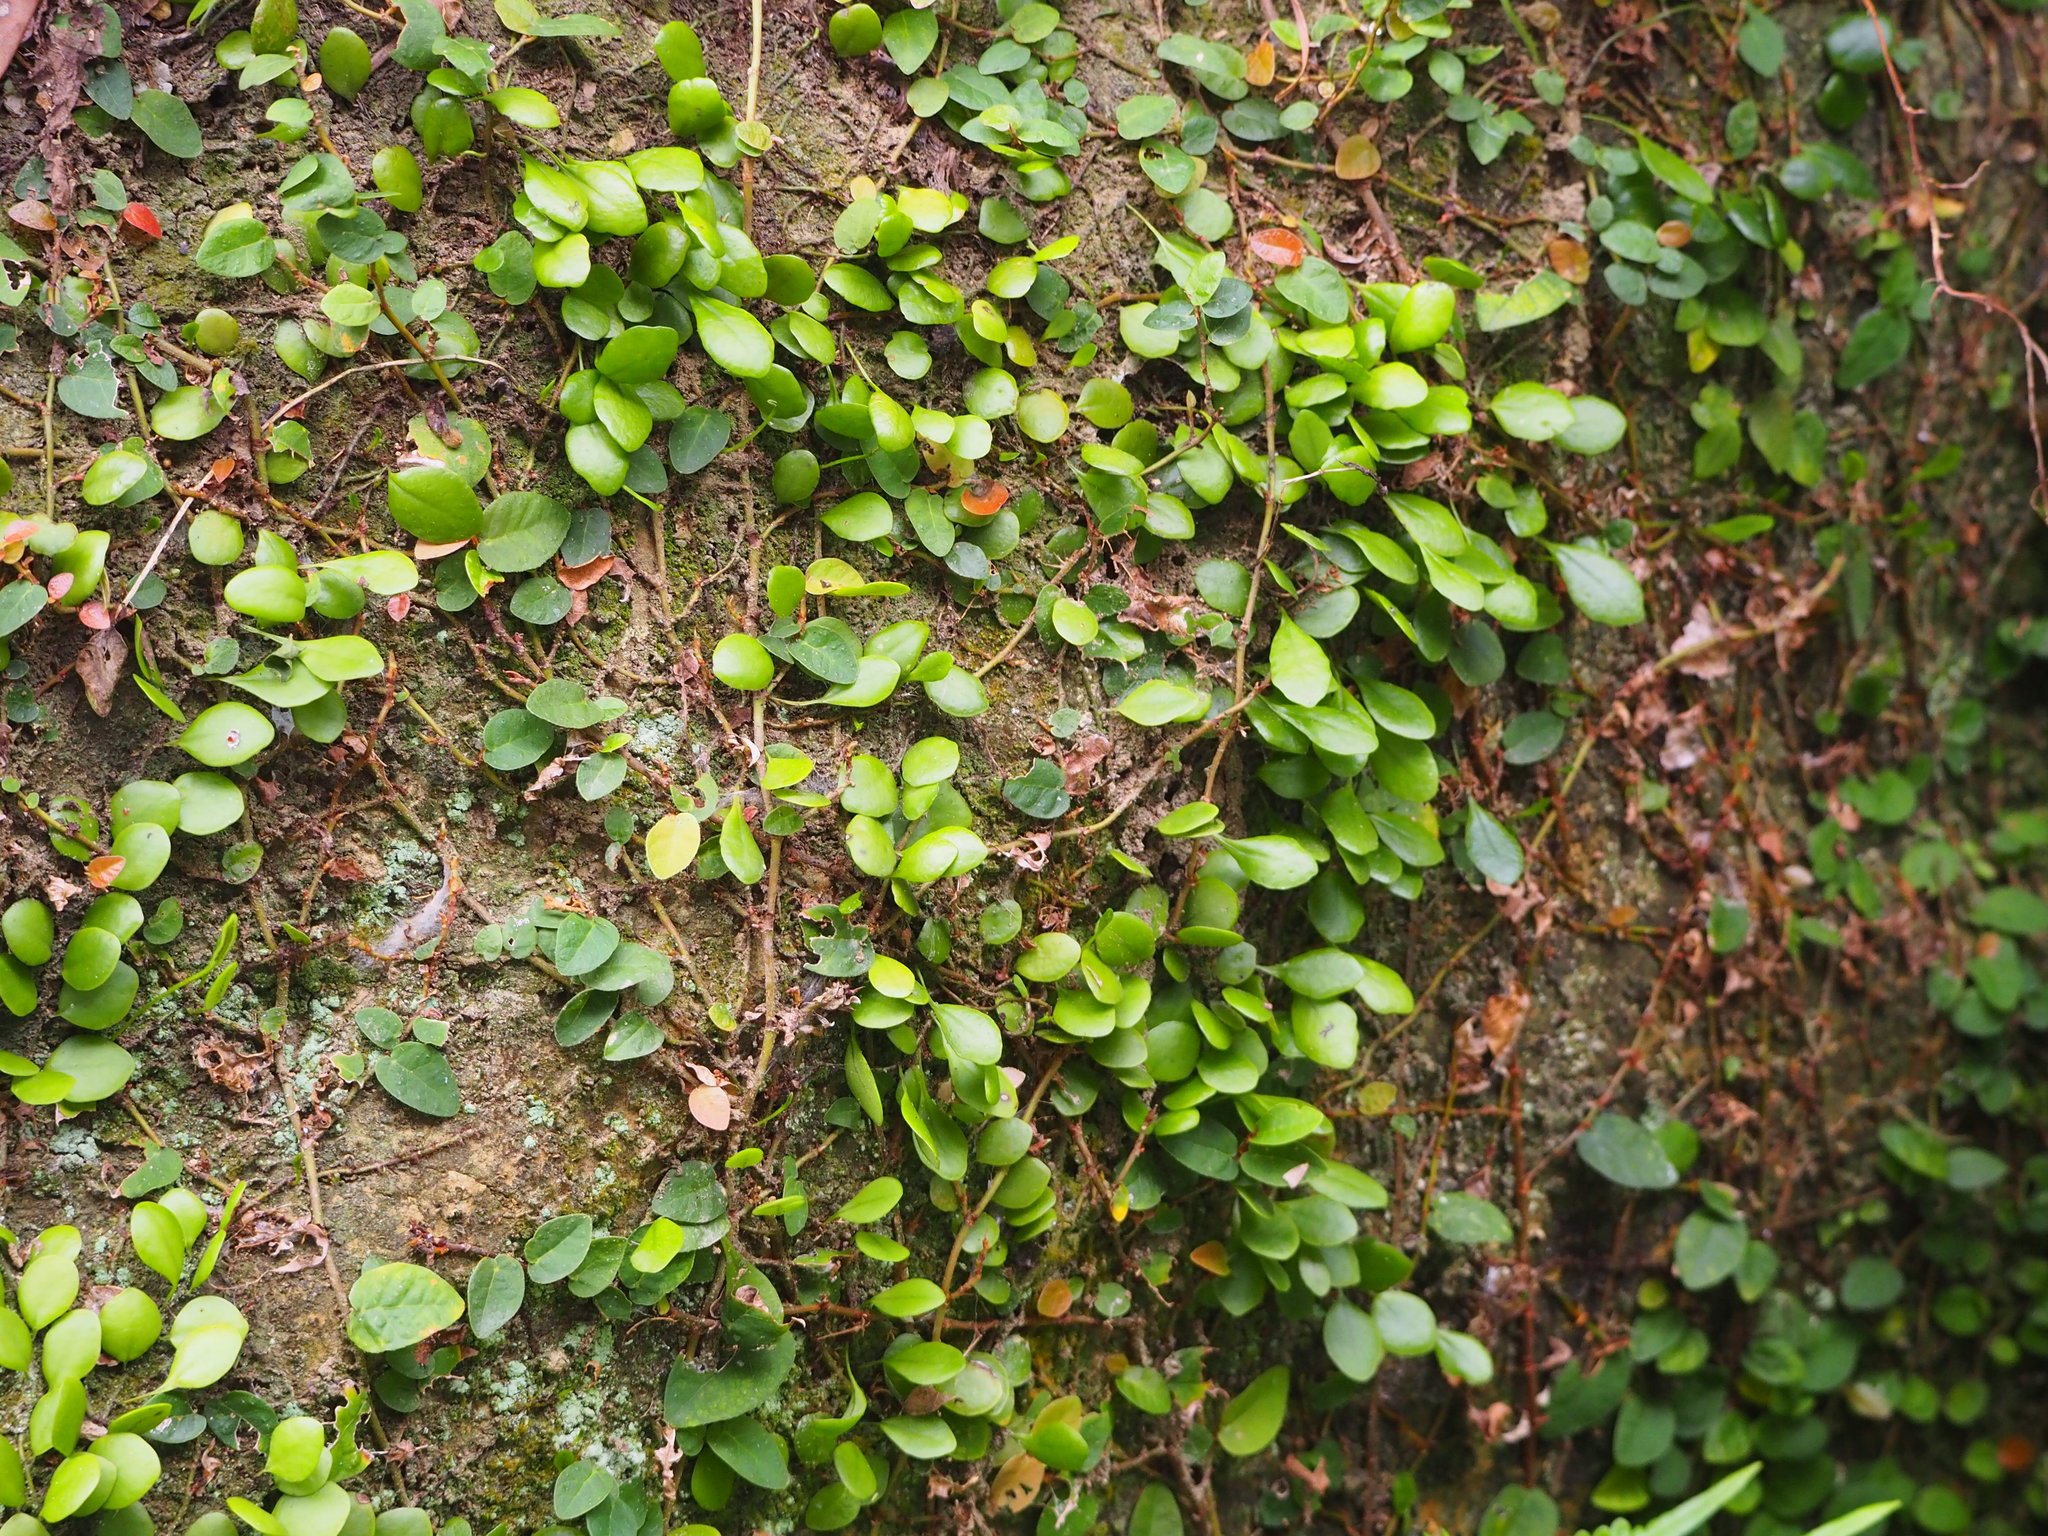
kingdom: Plantae
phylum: Tracheophyta
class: Polypodiopsida
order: Polypodiales
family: Polypodiaceae
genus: Lepisorus
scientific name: Lepisorus microphyllus
